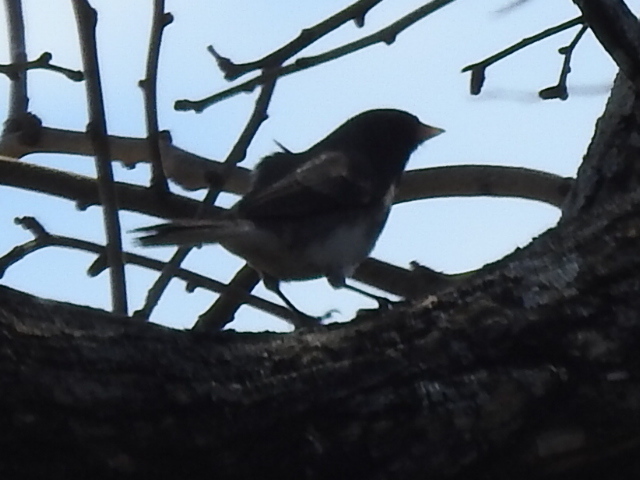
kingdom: Animalia
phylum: Chordata
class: Aves
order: Passeriformes
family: Passerellidae
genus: Junco
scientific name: Junco hyemalis
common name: Dark-eyed junco
